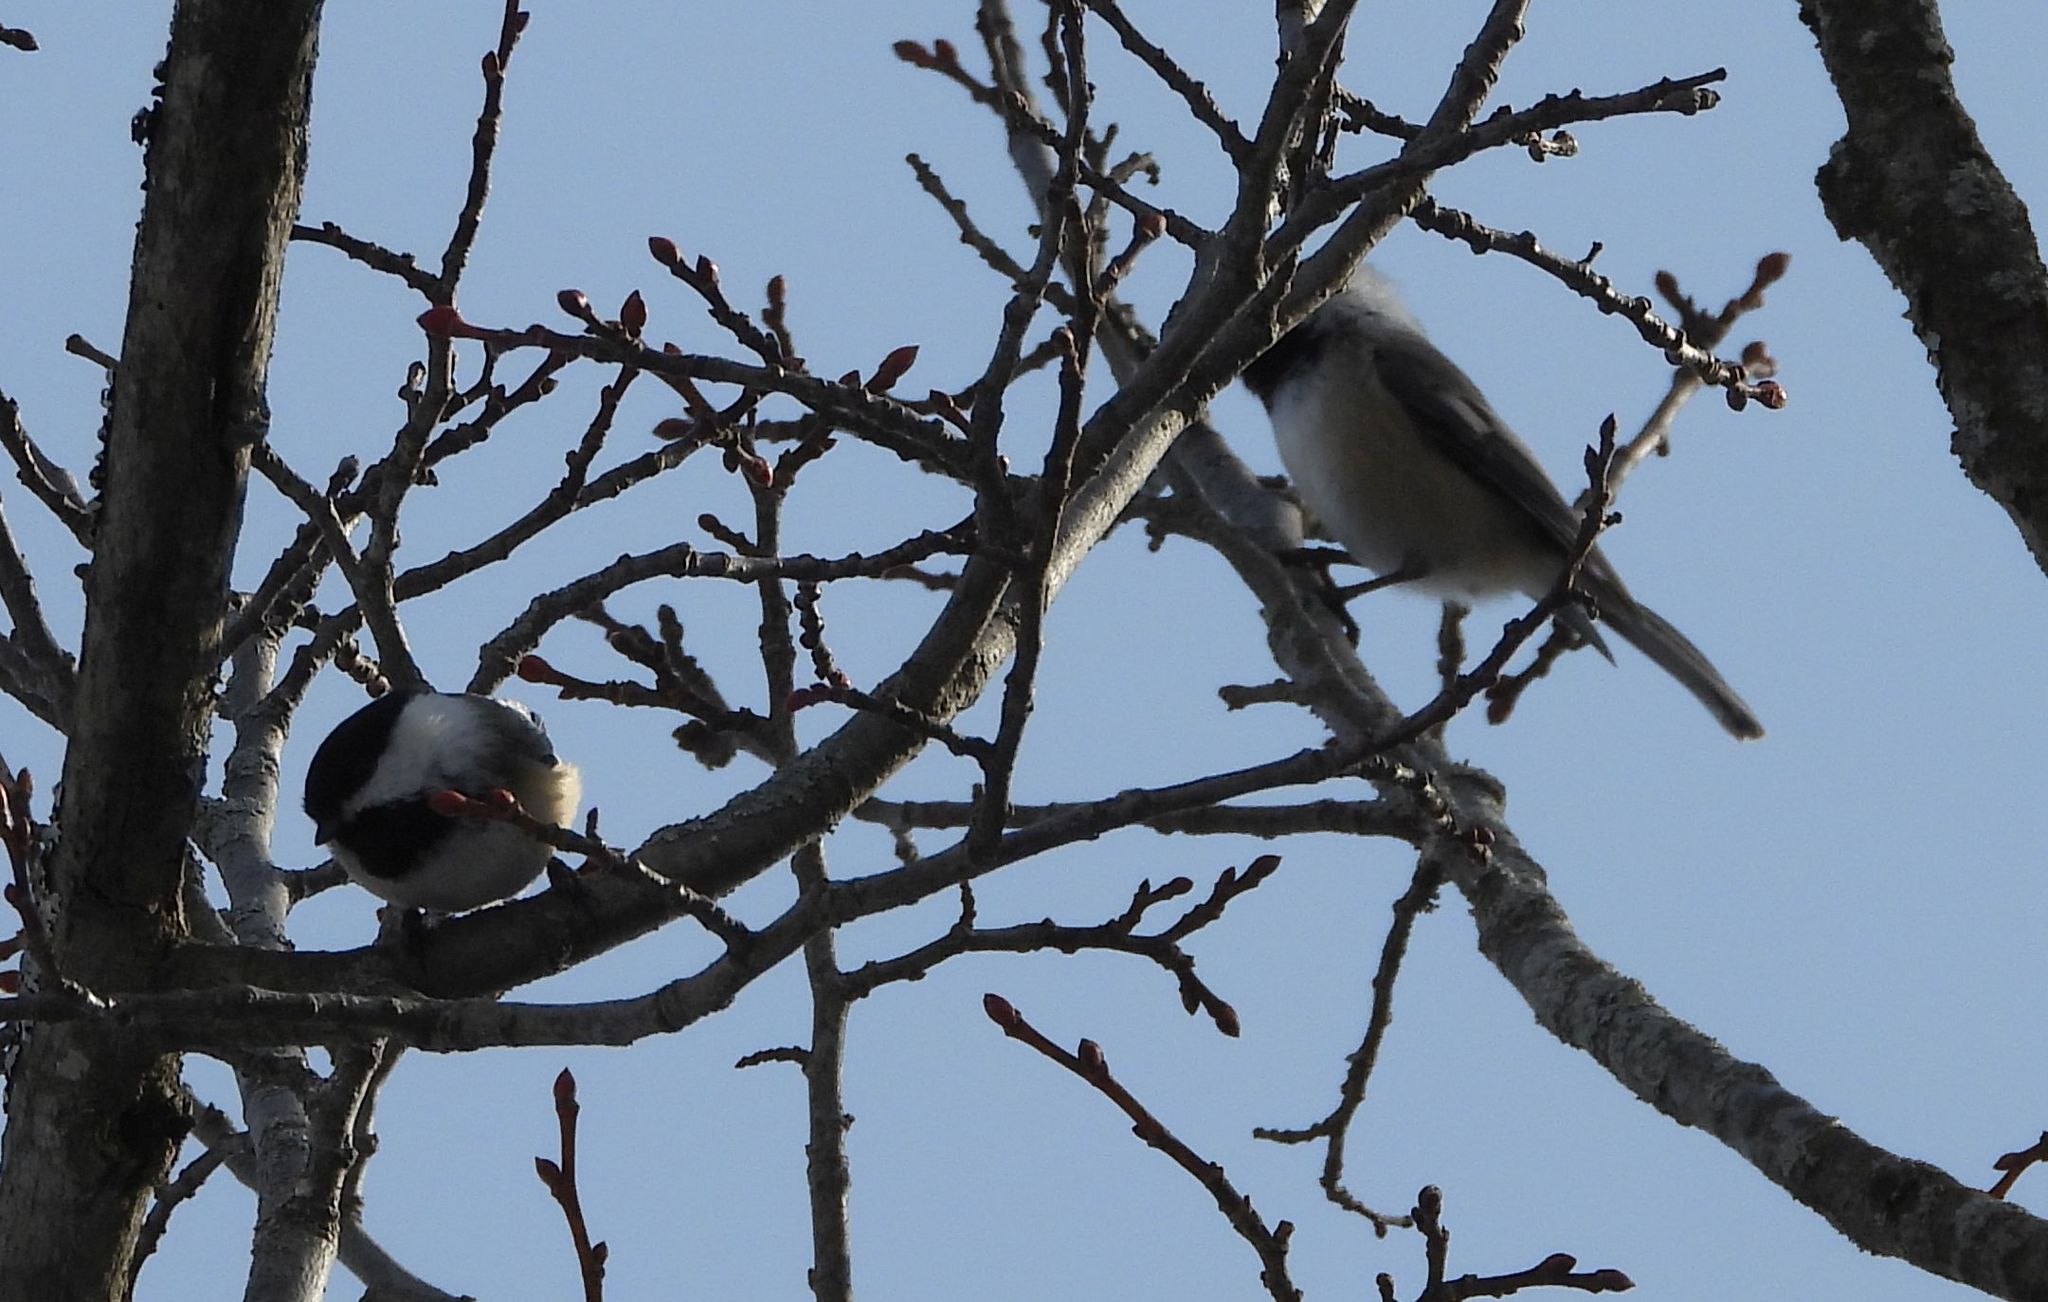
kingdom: Animalia
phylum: Chordata
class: Aves
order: Passeriformes
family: Paridae
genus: Poecile
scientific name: Poecile atricapillus
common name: Black-capped chickadee
